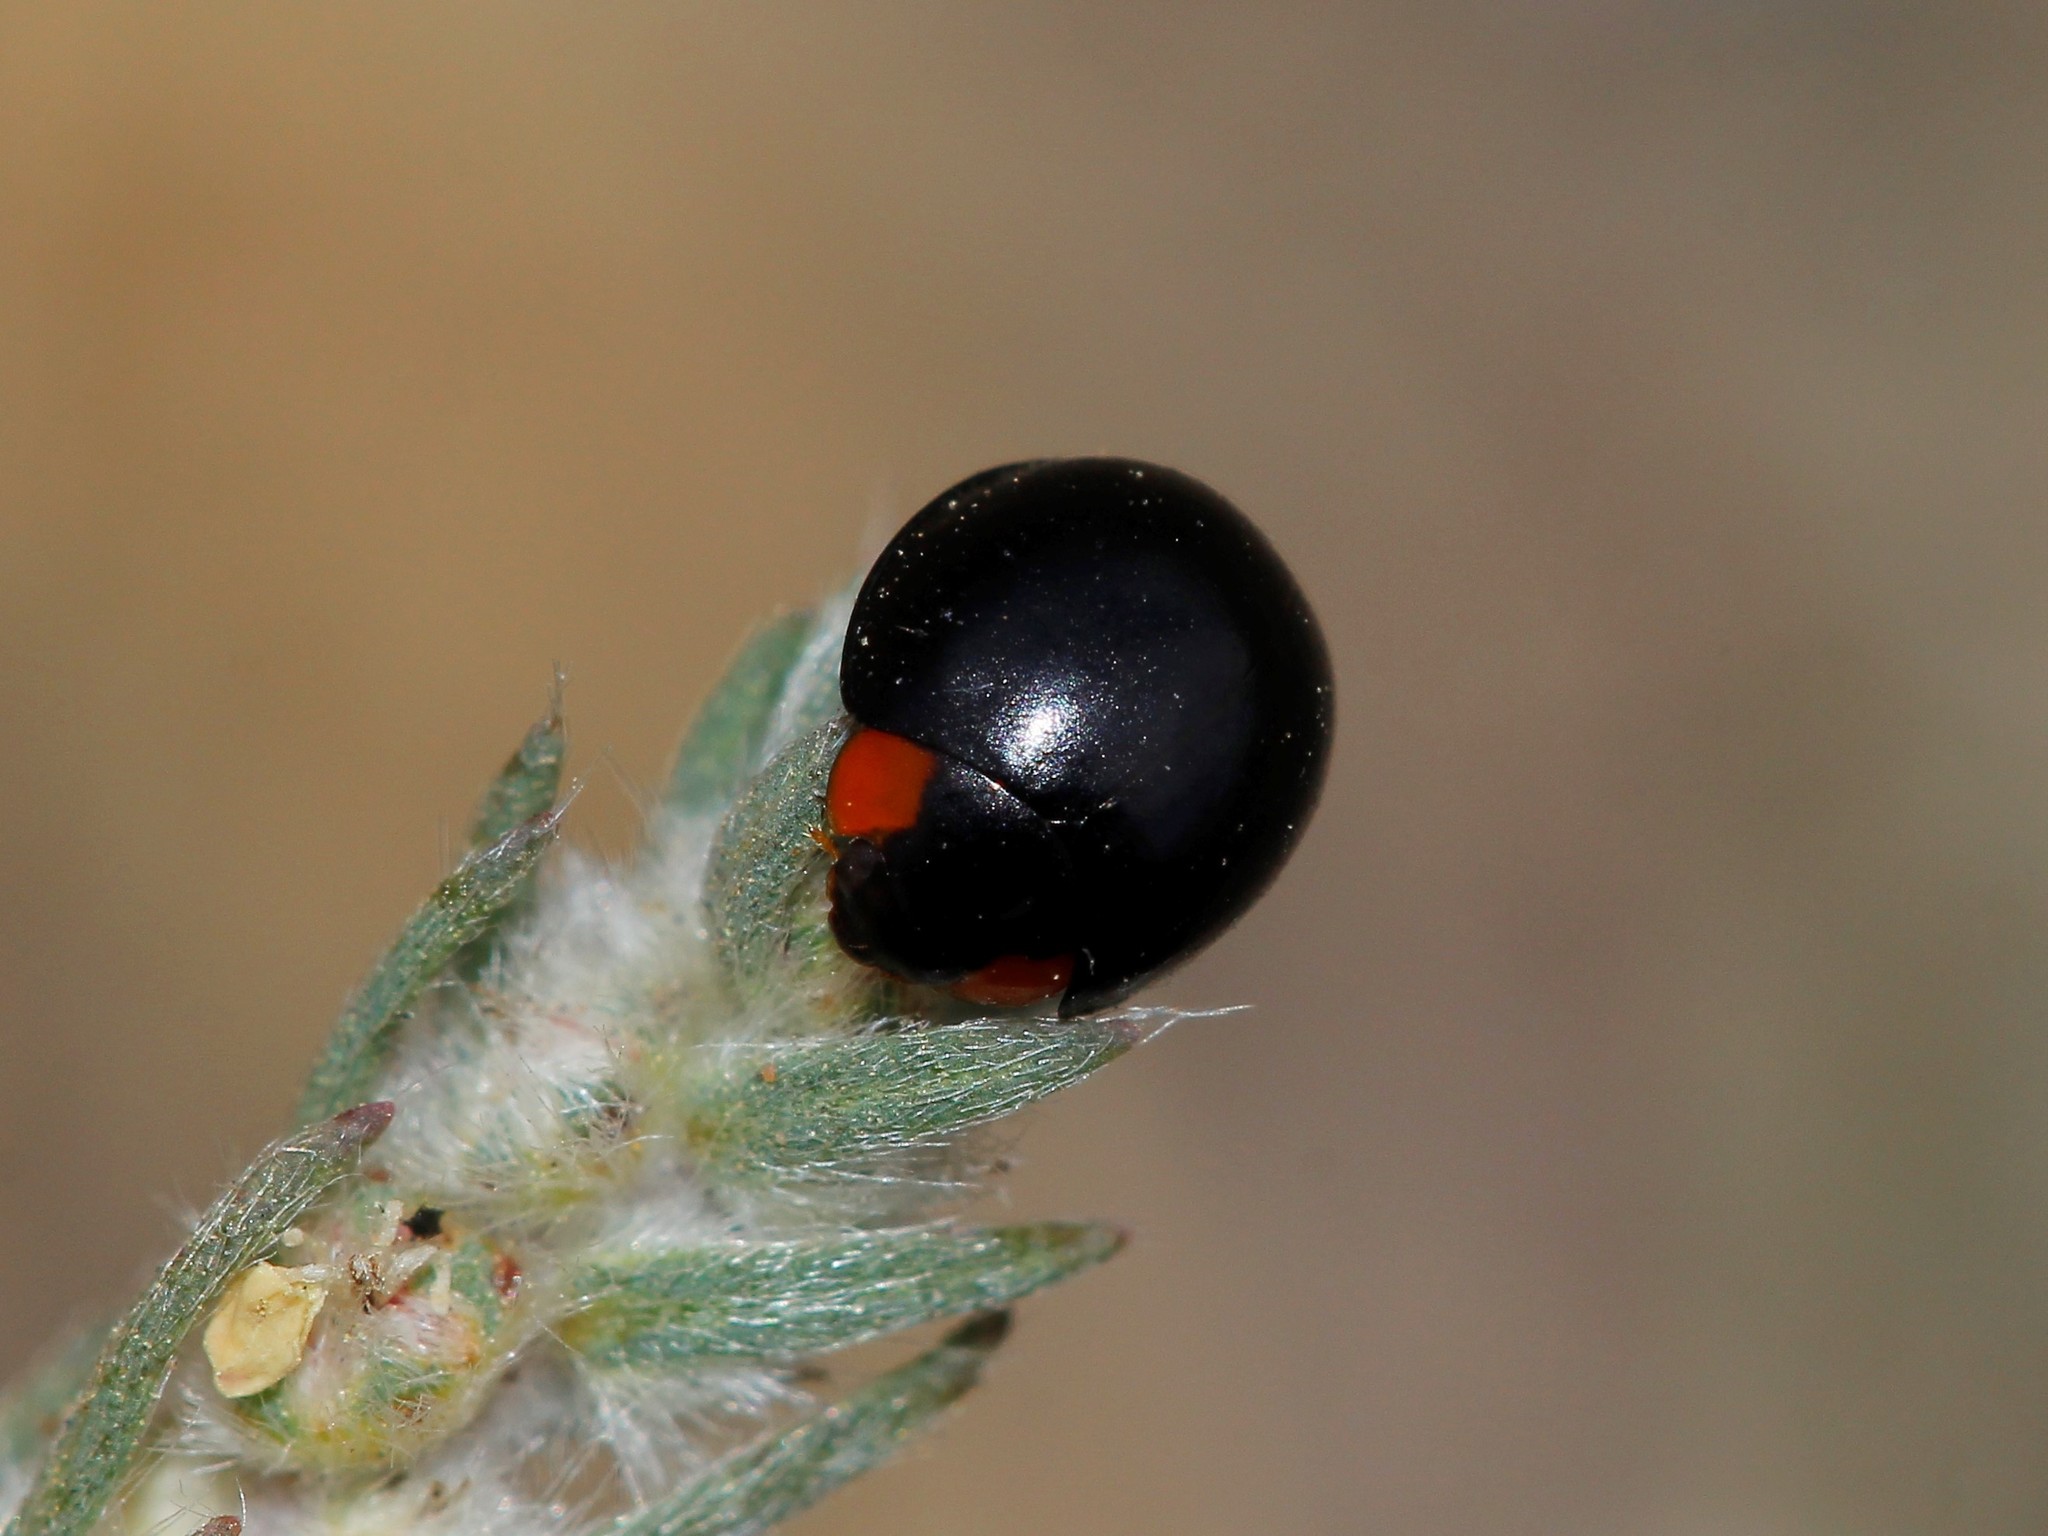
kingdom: Animalia
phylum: Arthropoda
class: Insecta
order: Coleoptera
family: Coccinellidae
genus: Parexochomus
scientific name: Parexochomus nigromaculatus
